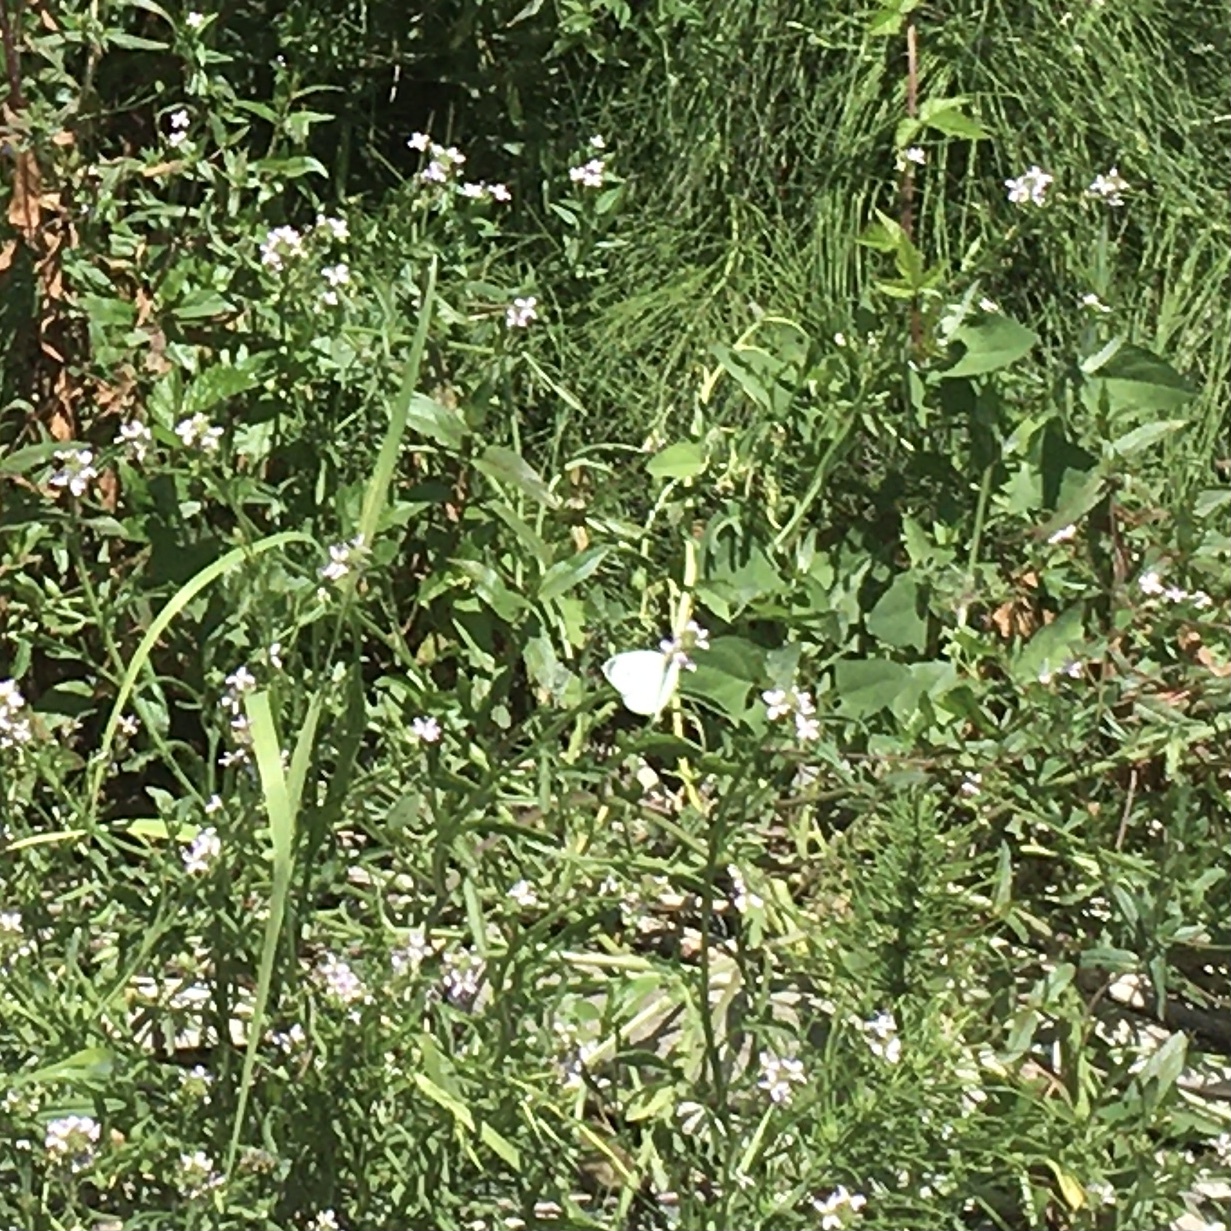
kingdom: Animalia
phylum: Arthropoda
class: Insecta
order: Lepidoptera
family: Pieridae
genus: Pieris
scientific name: Pieris rapae
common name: Small white
